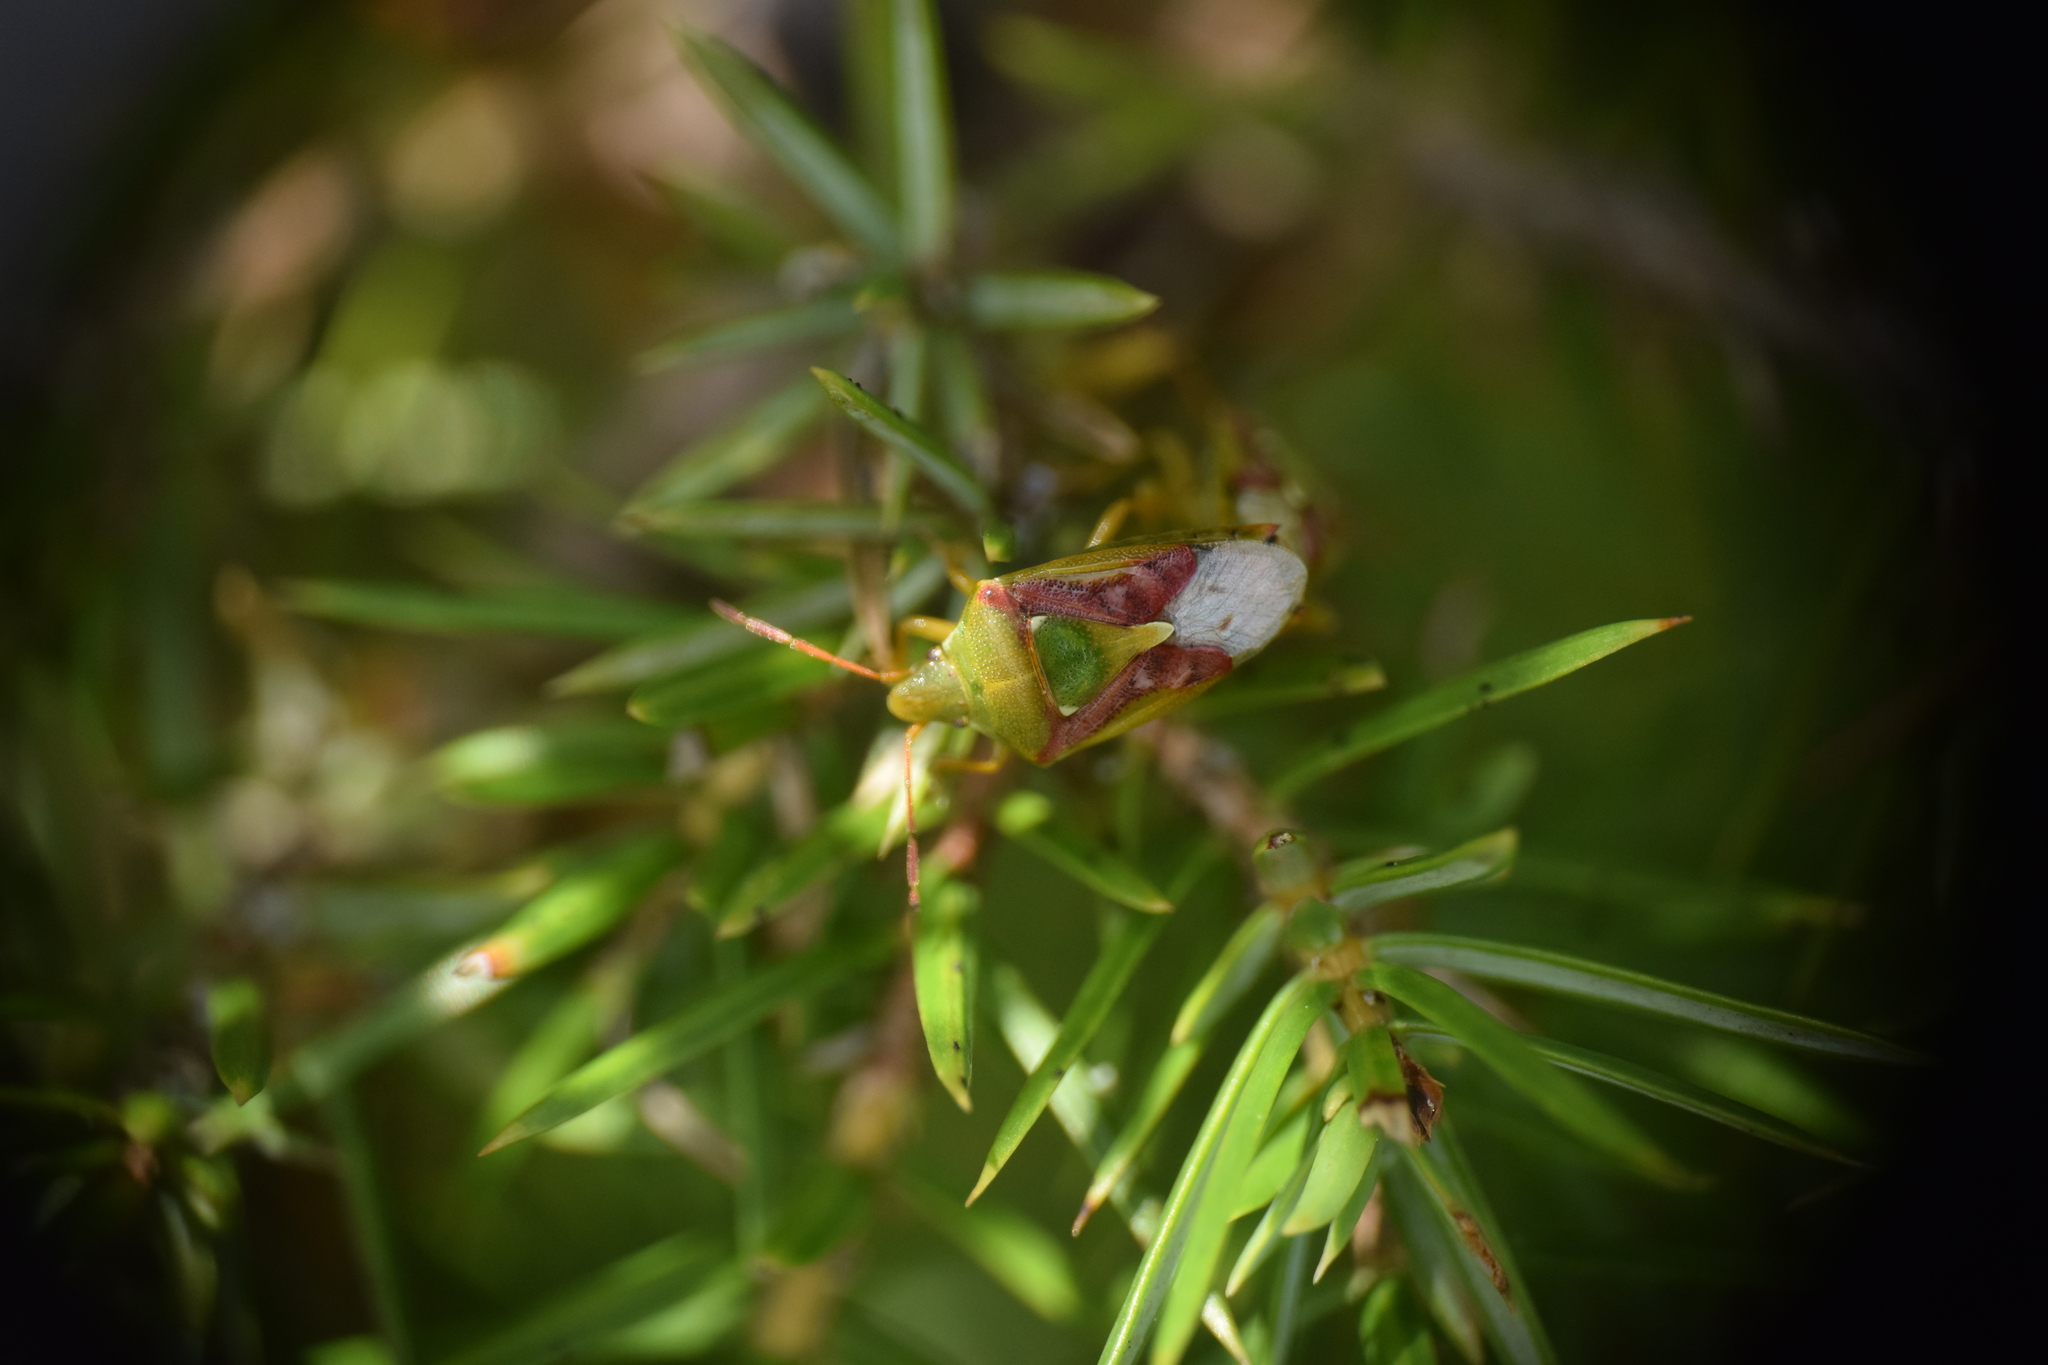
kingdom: Animalia
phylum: Arthropoda
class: Insecta
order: Hemiptera
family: Acanthosomatidae
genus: Cyphostethus
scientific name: Cyphostethus tristriatus
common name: Juniper shieldbug
